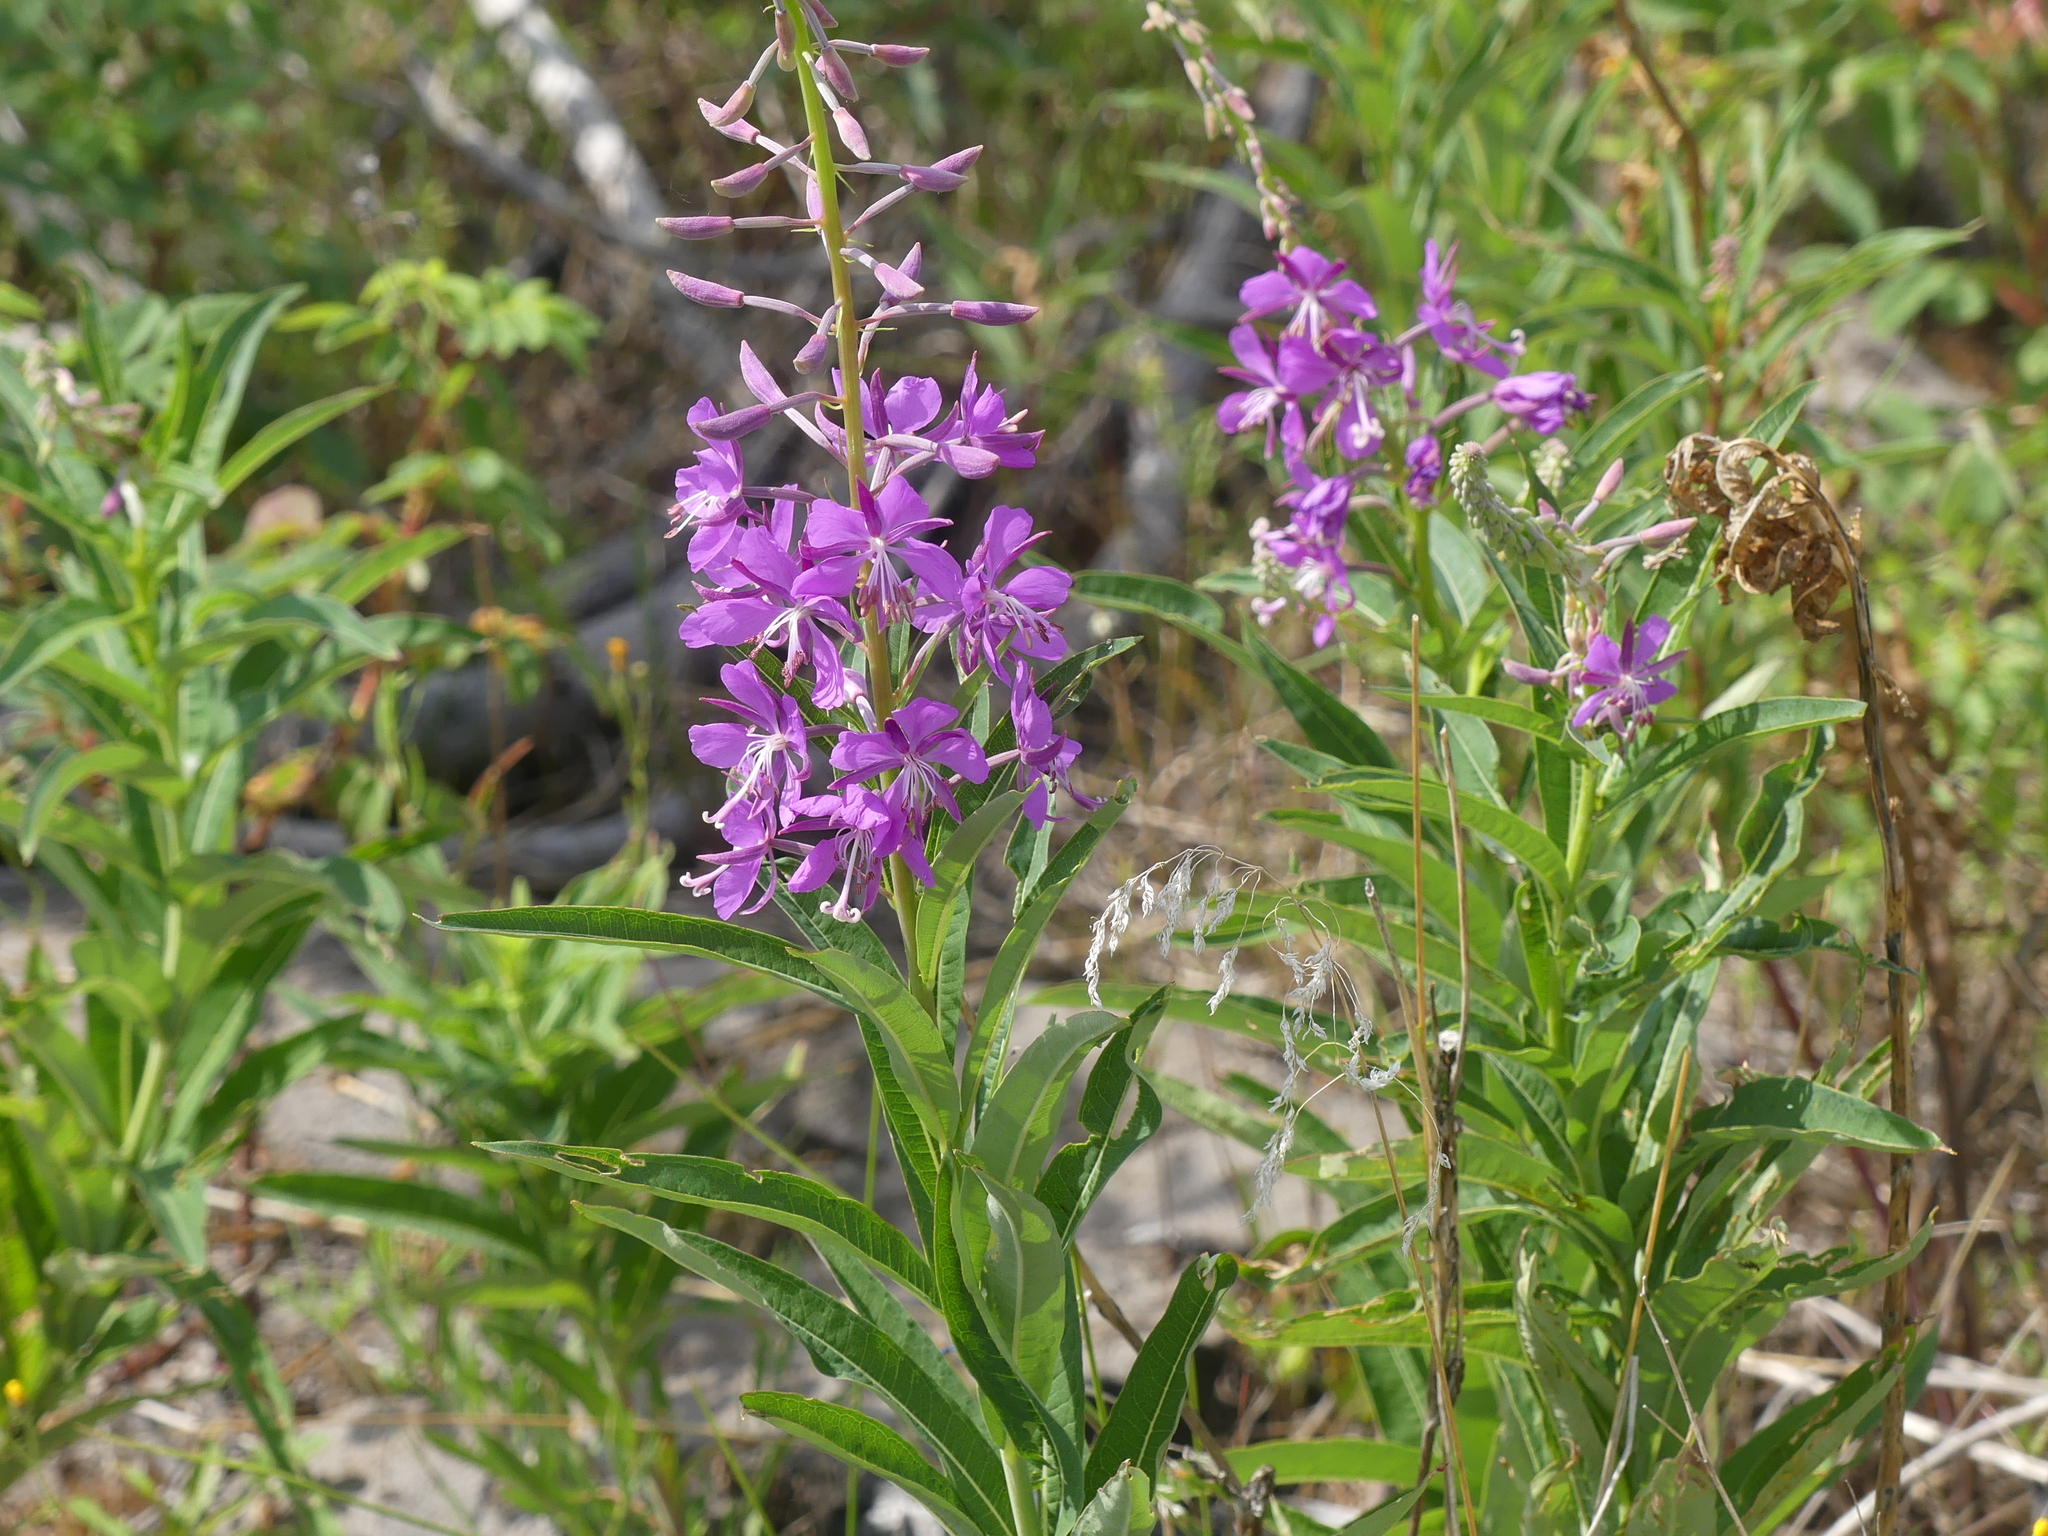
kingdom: Plantae
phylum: Tracheophyta
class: Magnoliopsida
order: Myrtales
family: Onagraceae
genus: Chamaenerion
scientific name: Chamaenerion angustifolium
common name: Fireweed
